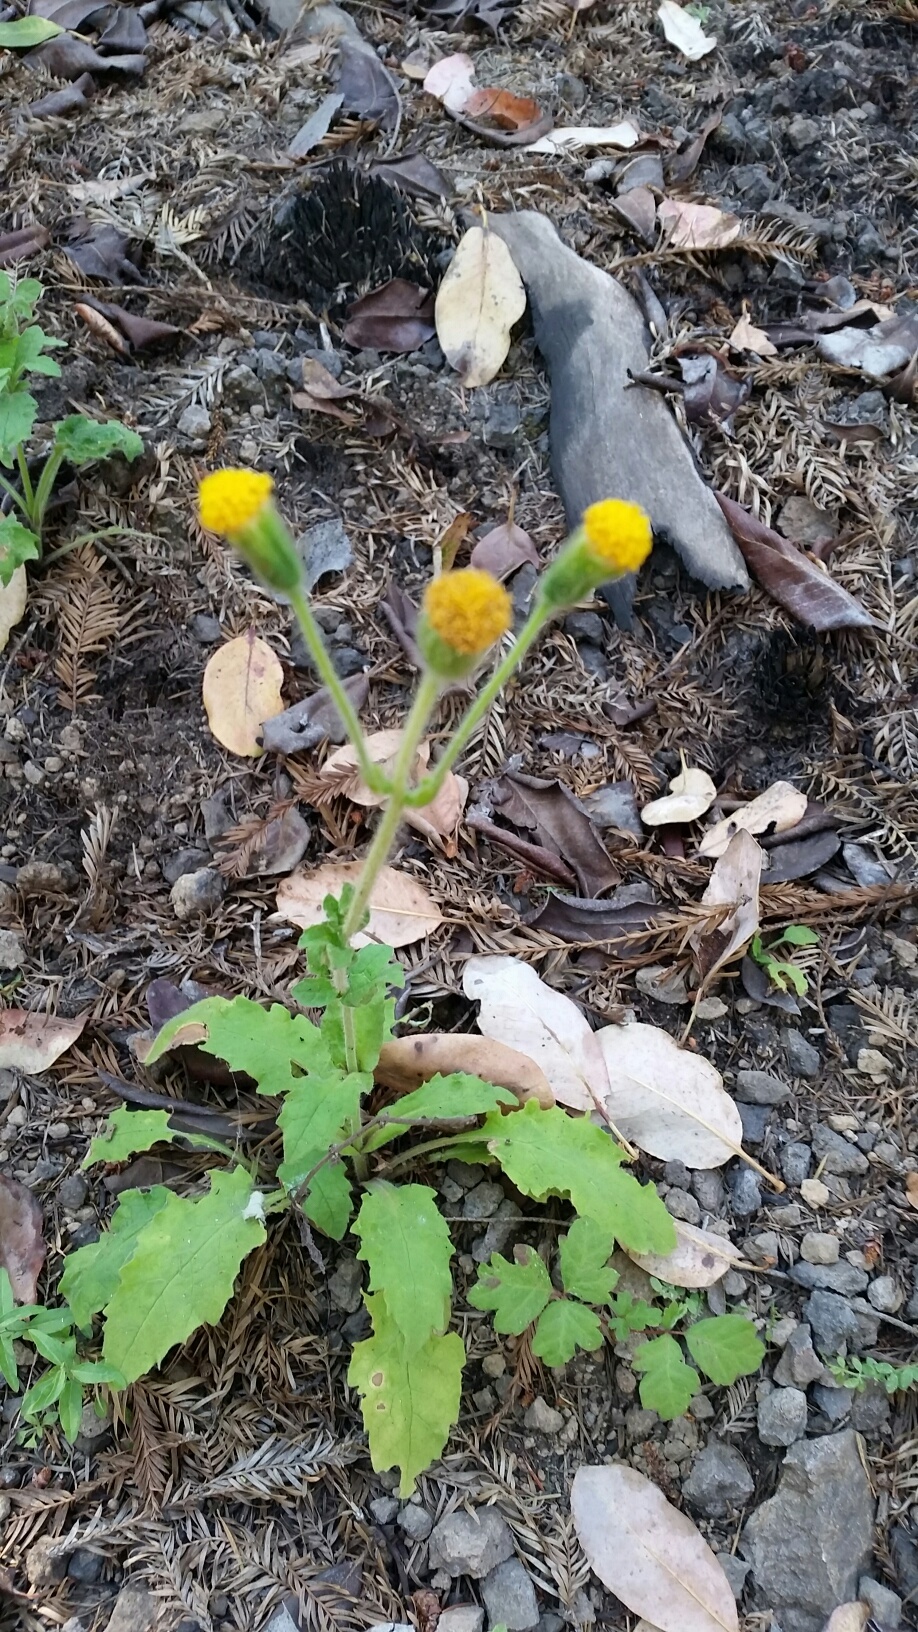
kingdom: Plantae
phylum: Tracheophyta
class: Magnoliopsida
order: Asterales
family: Asteraceae
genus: Arnica
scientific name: Arnica discoidea
